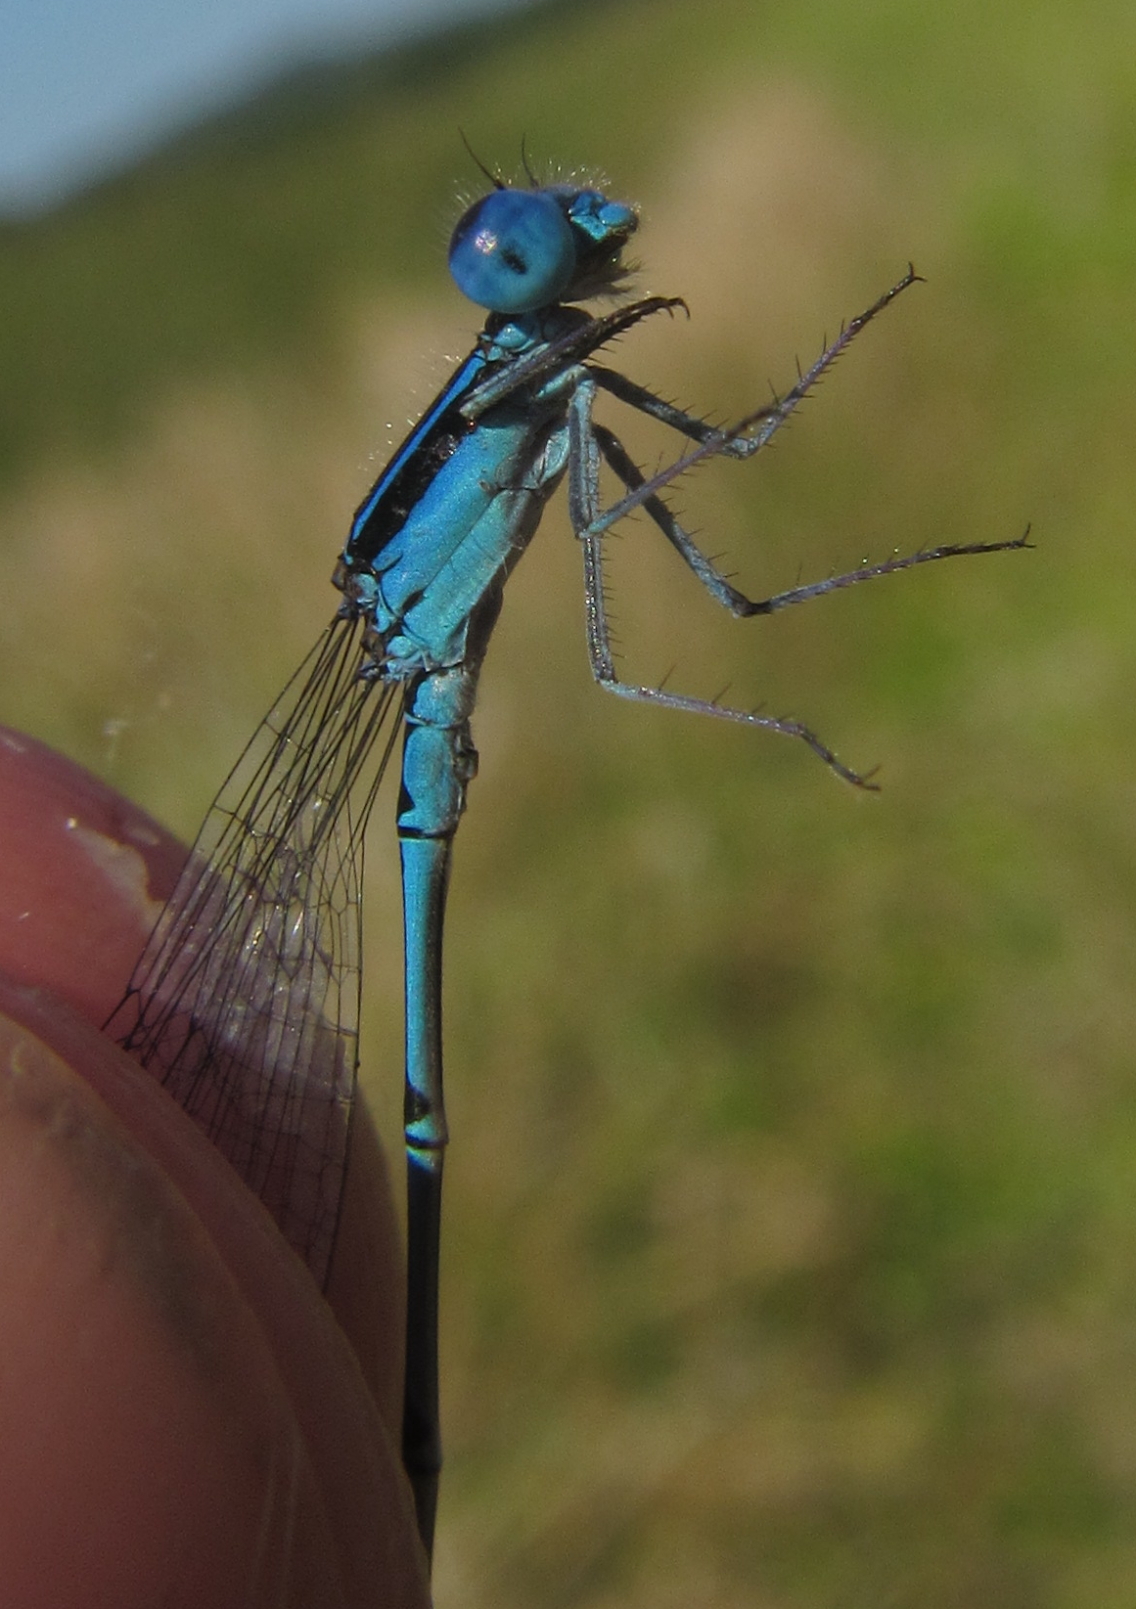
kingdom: Animalia
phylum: Arthropoda
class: Insecta
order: Odonata
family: Coenagrionidae
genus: Azuragrion
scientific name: Azuragrion nigridorsum
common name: Sailing azuret
